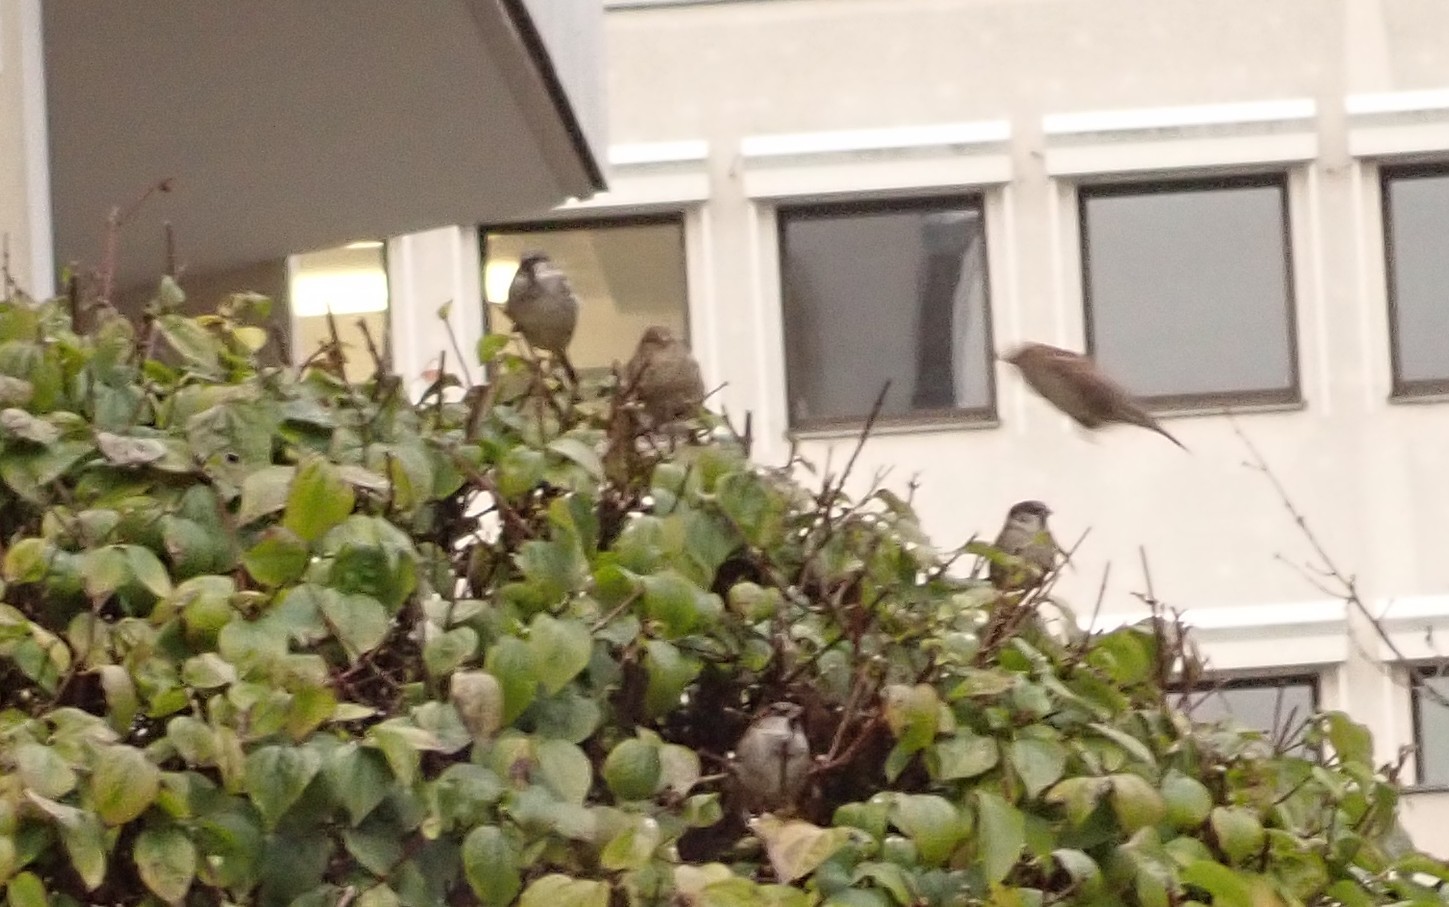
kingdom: Animalia
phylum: Chordata
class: Aves
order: Passeriformes
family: Passeridae
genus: Passer
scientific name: Passer domesticus
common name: House sparrow
